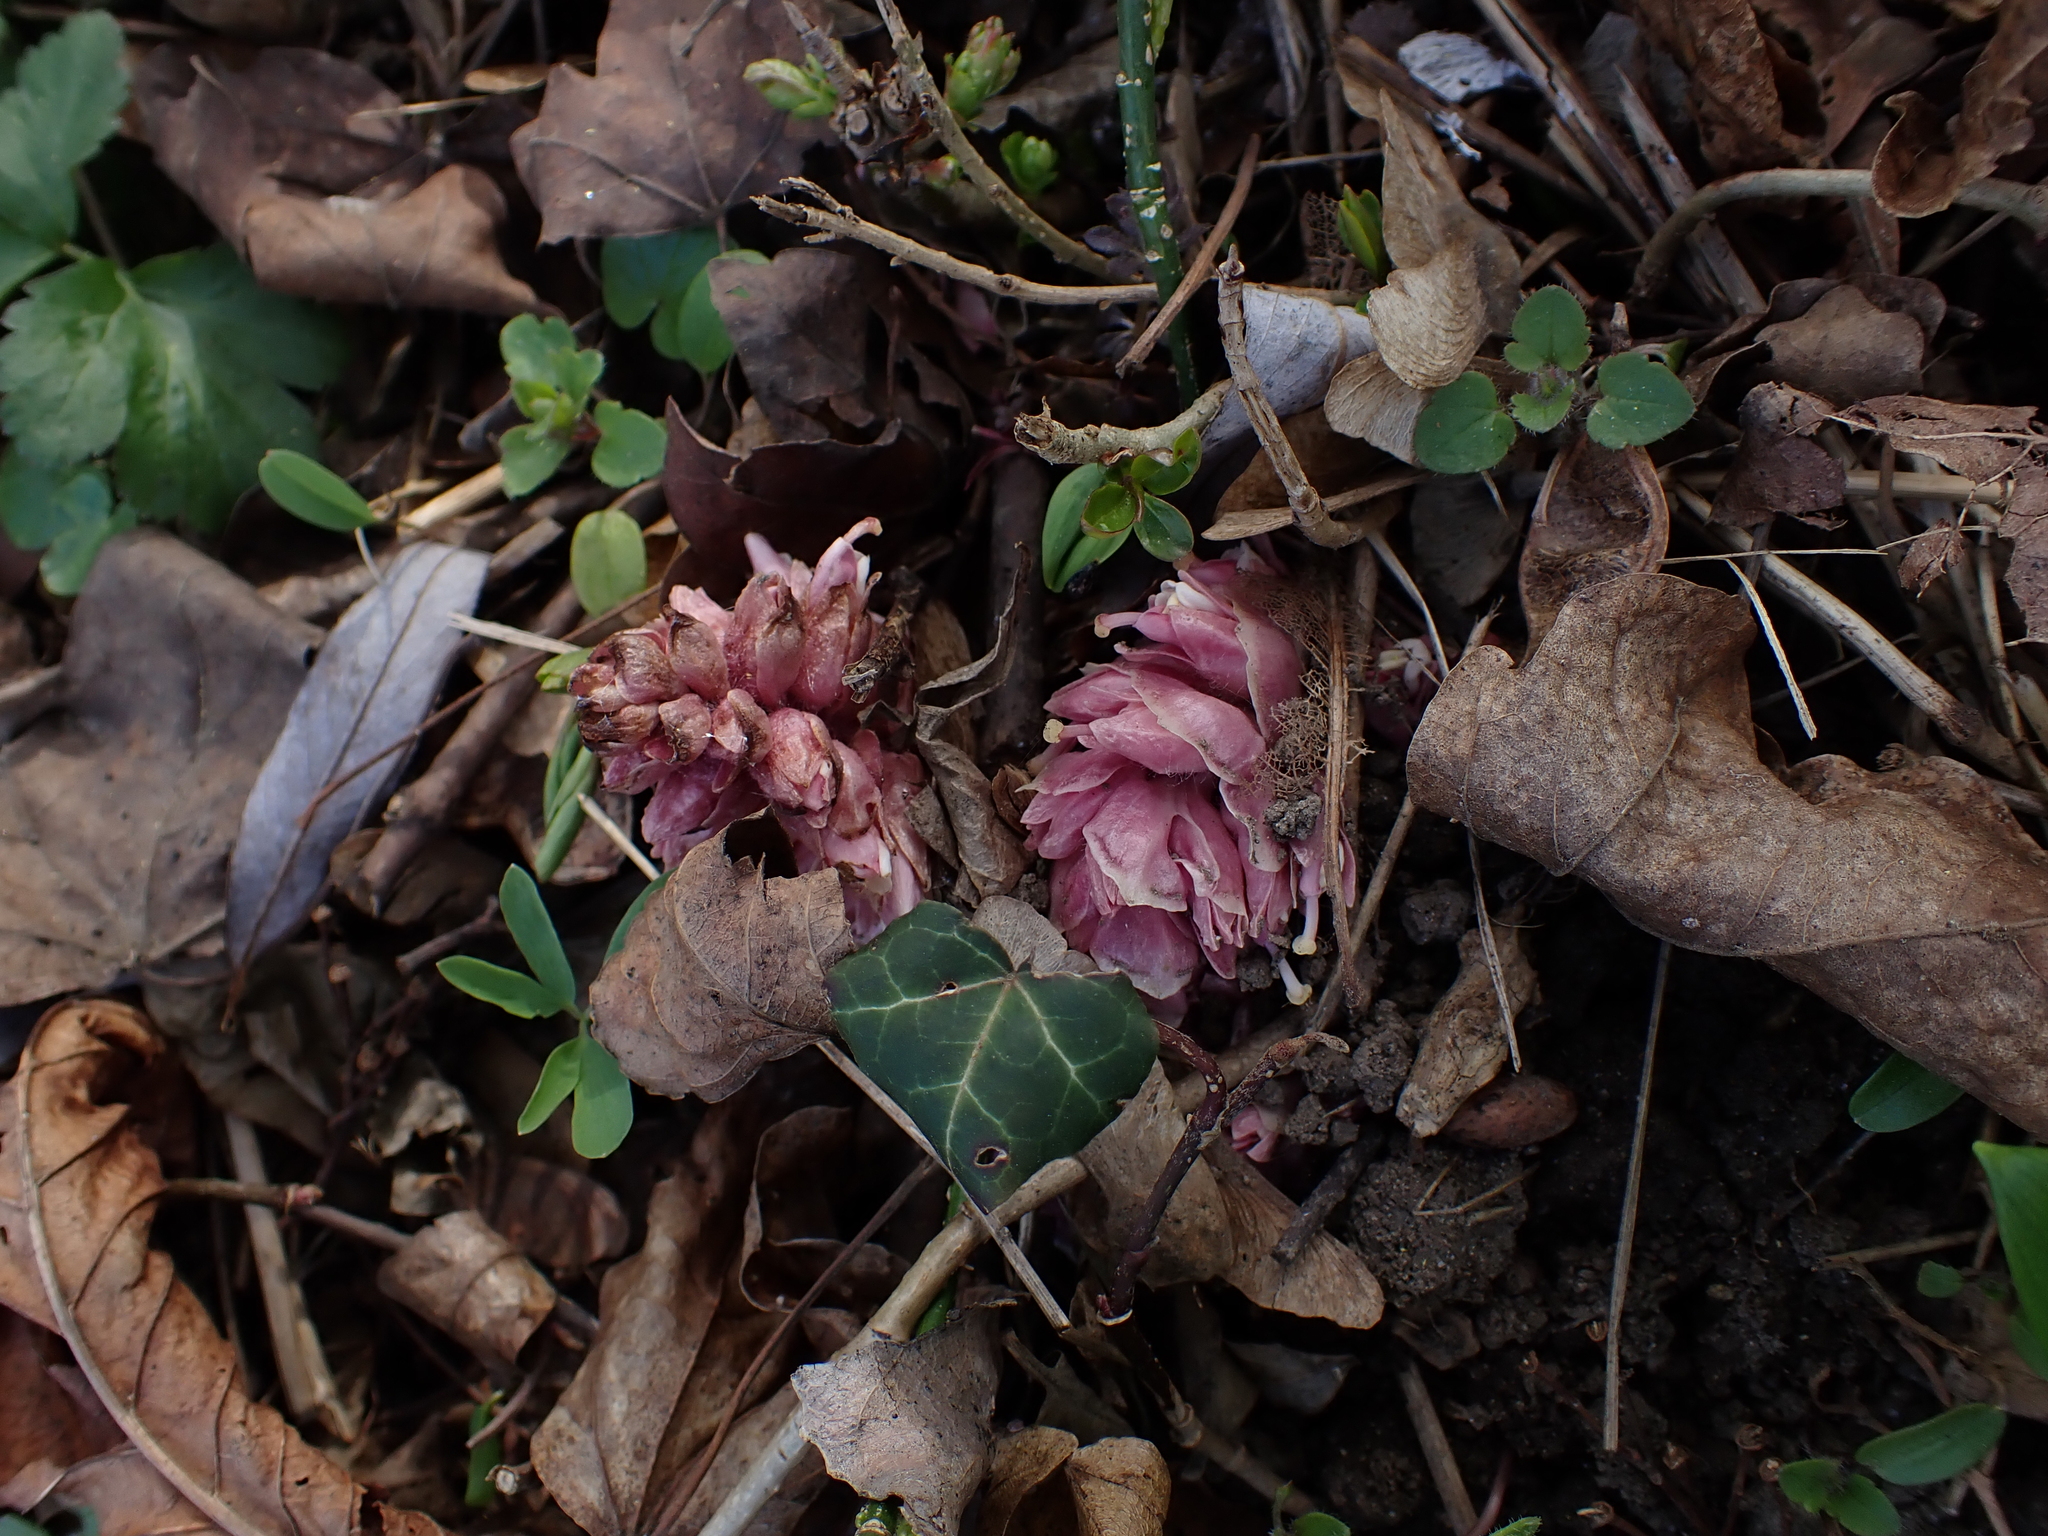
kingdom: Plantae
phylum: Tracheophyta
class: Magnoliopsida
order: Lamiales
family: Orobanchaceae
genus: Lathraea
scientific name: Lathraea squamaria
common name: Toothwort
